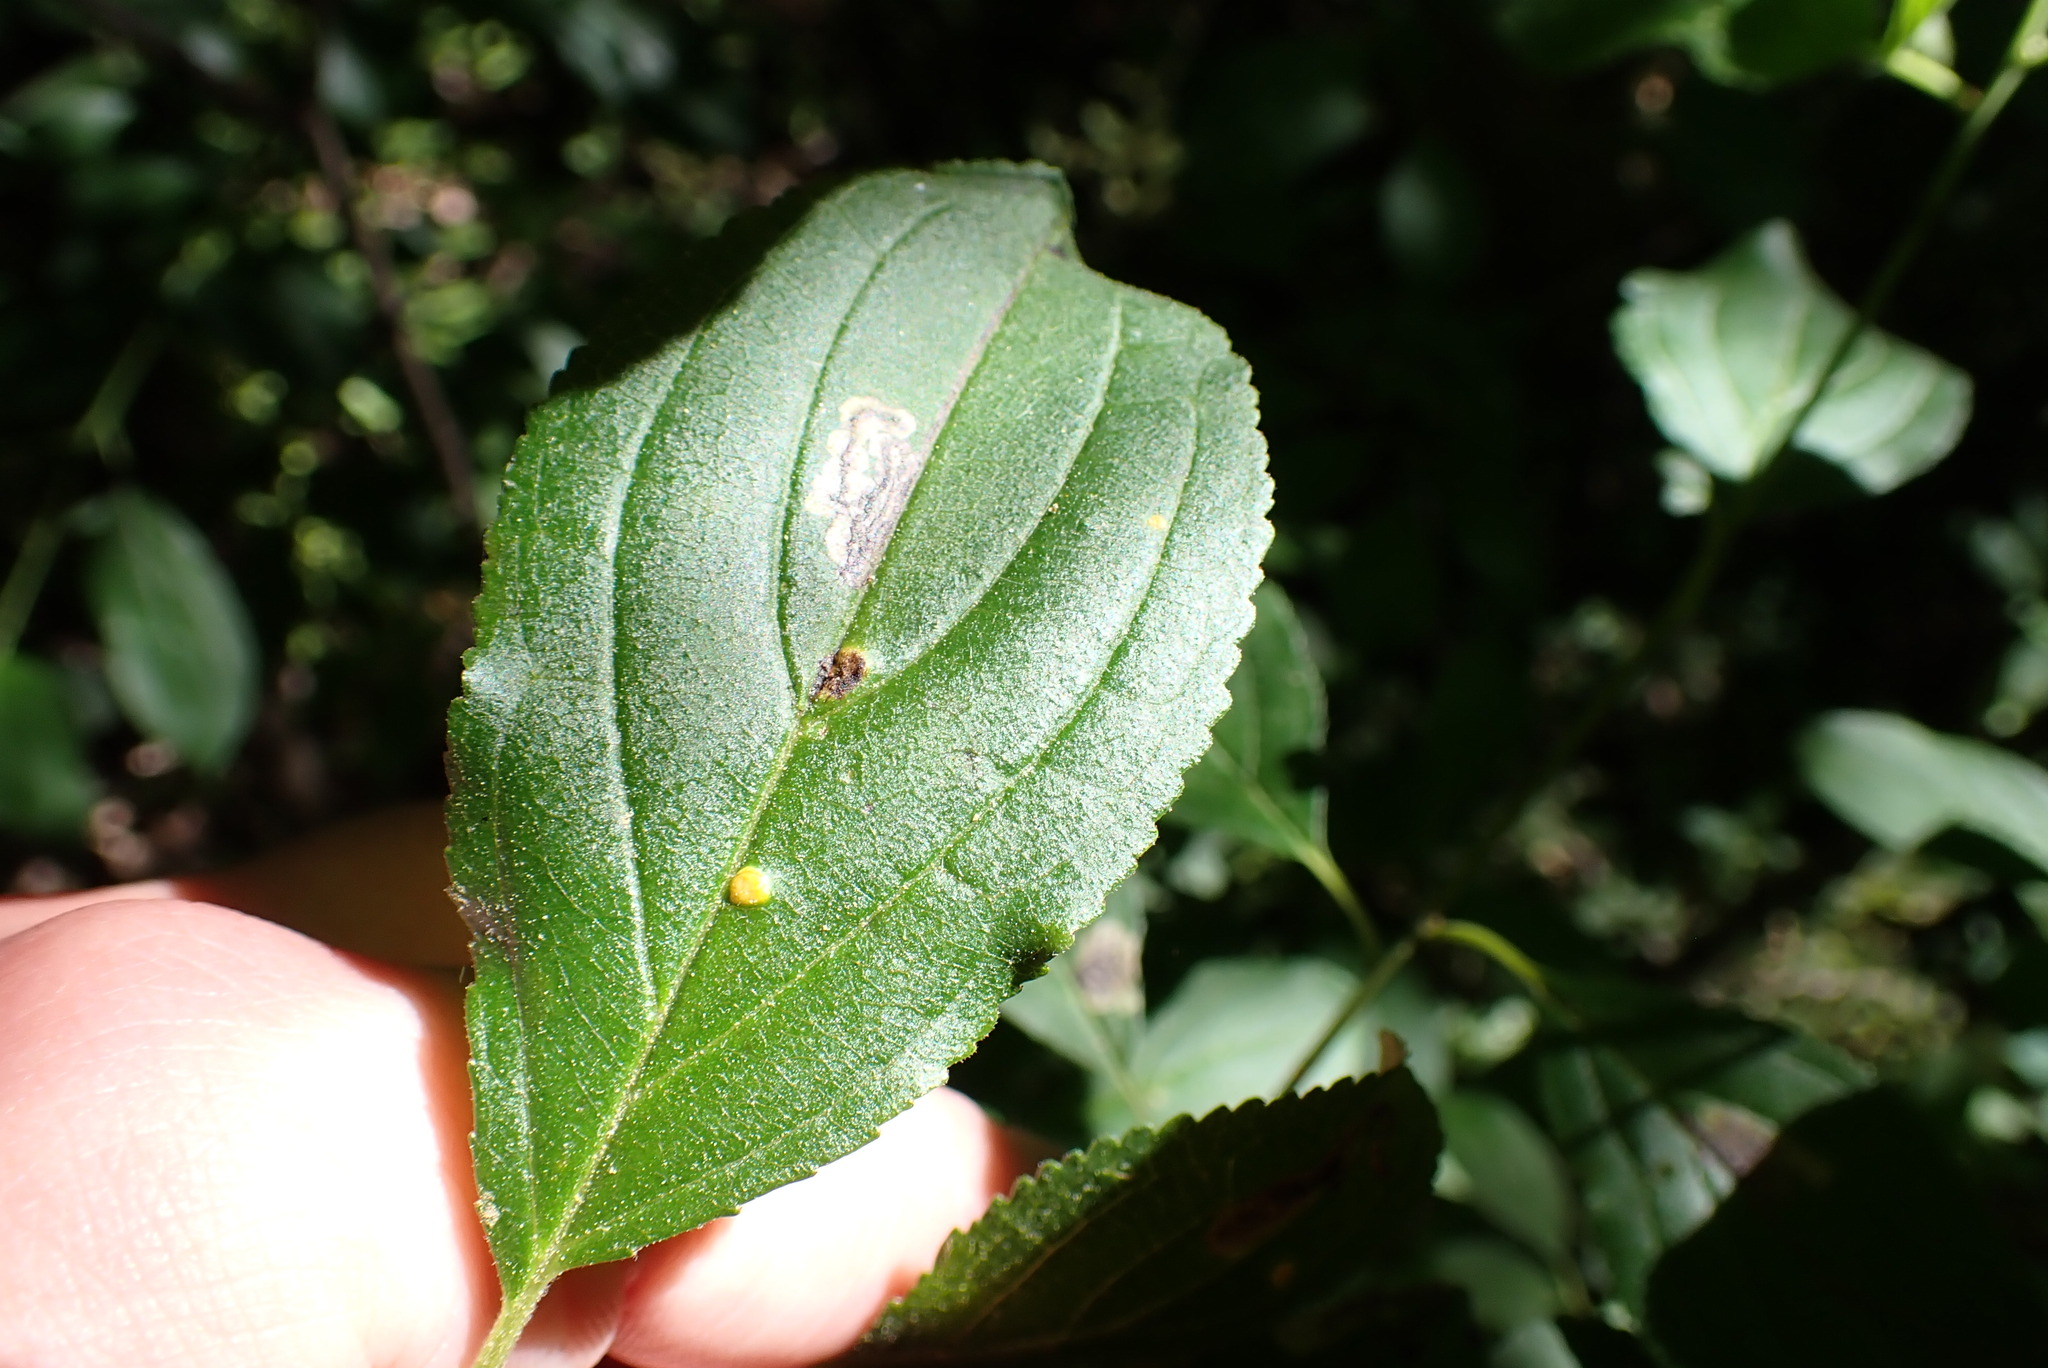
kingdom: Animalia
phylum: Arthropoda
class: Insecta
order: Lepidoptera
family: Nepticulidae
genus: Stigmella
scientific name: Stigmella rhamnicola
